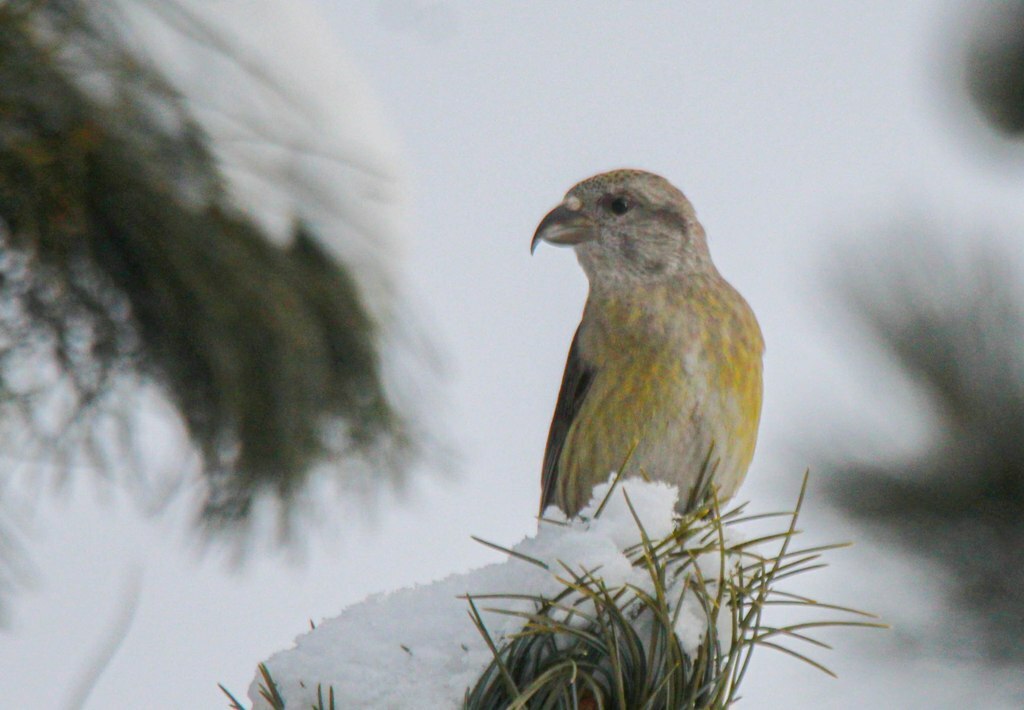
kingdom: Animalia
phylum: Chordata
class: Aves
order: Passeriformes
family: Fringillidae
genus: Loxia
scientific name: Loxia curvirostra
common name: Red crossbill
